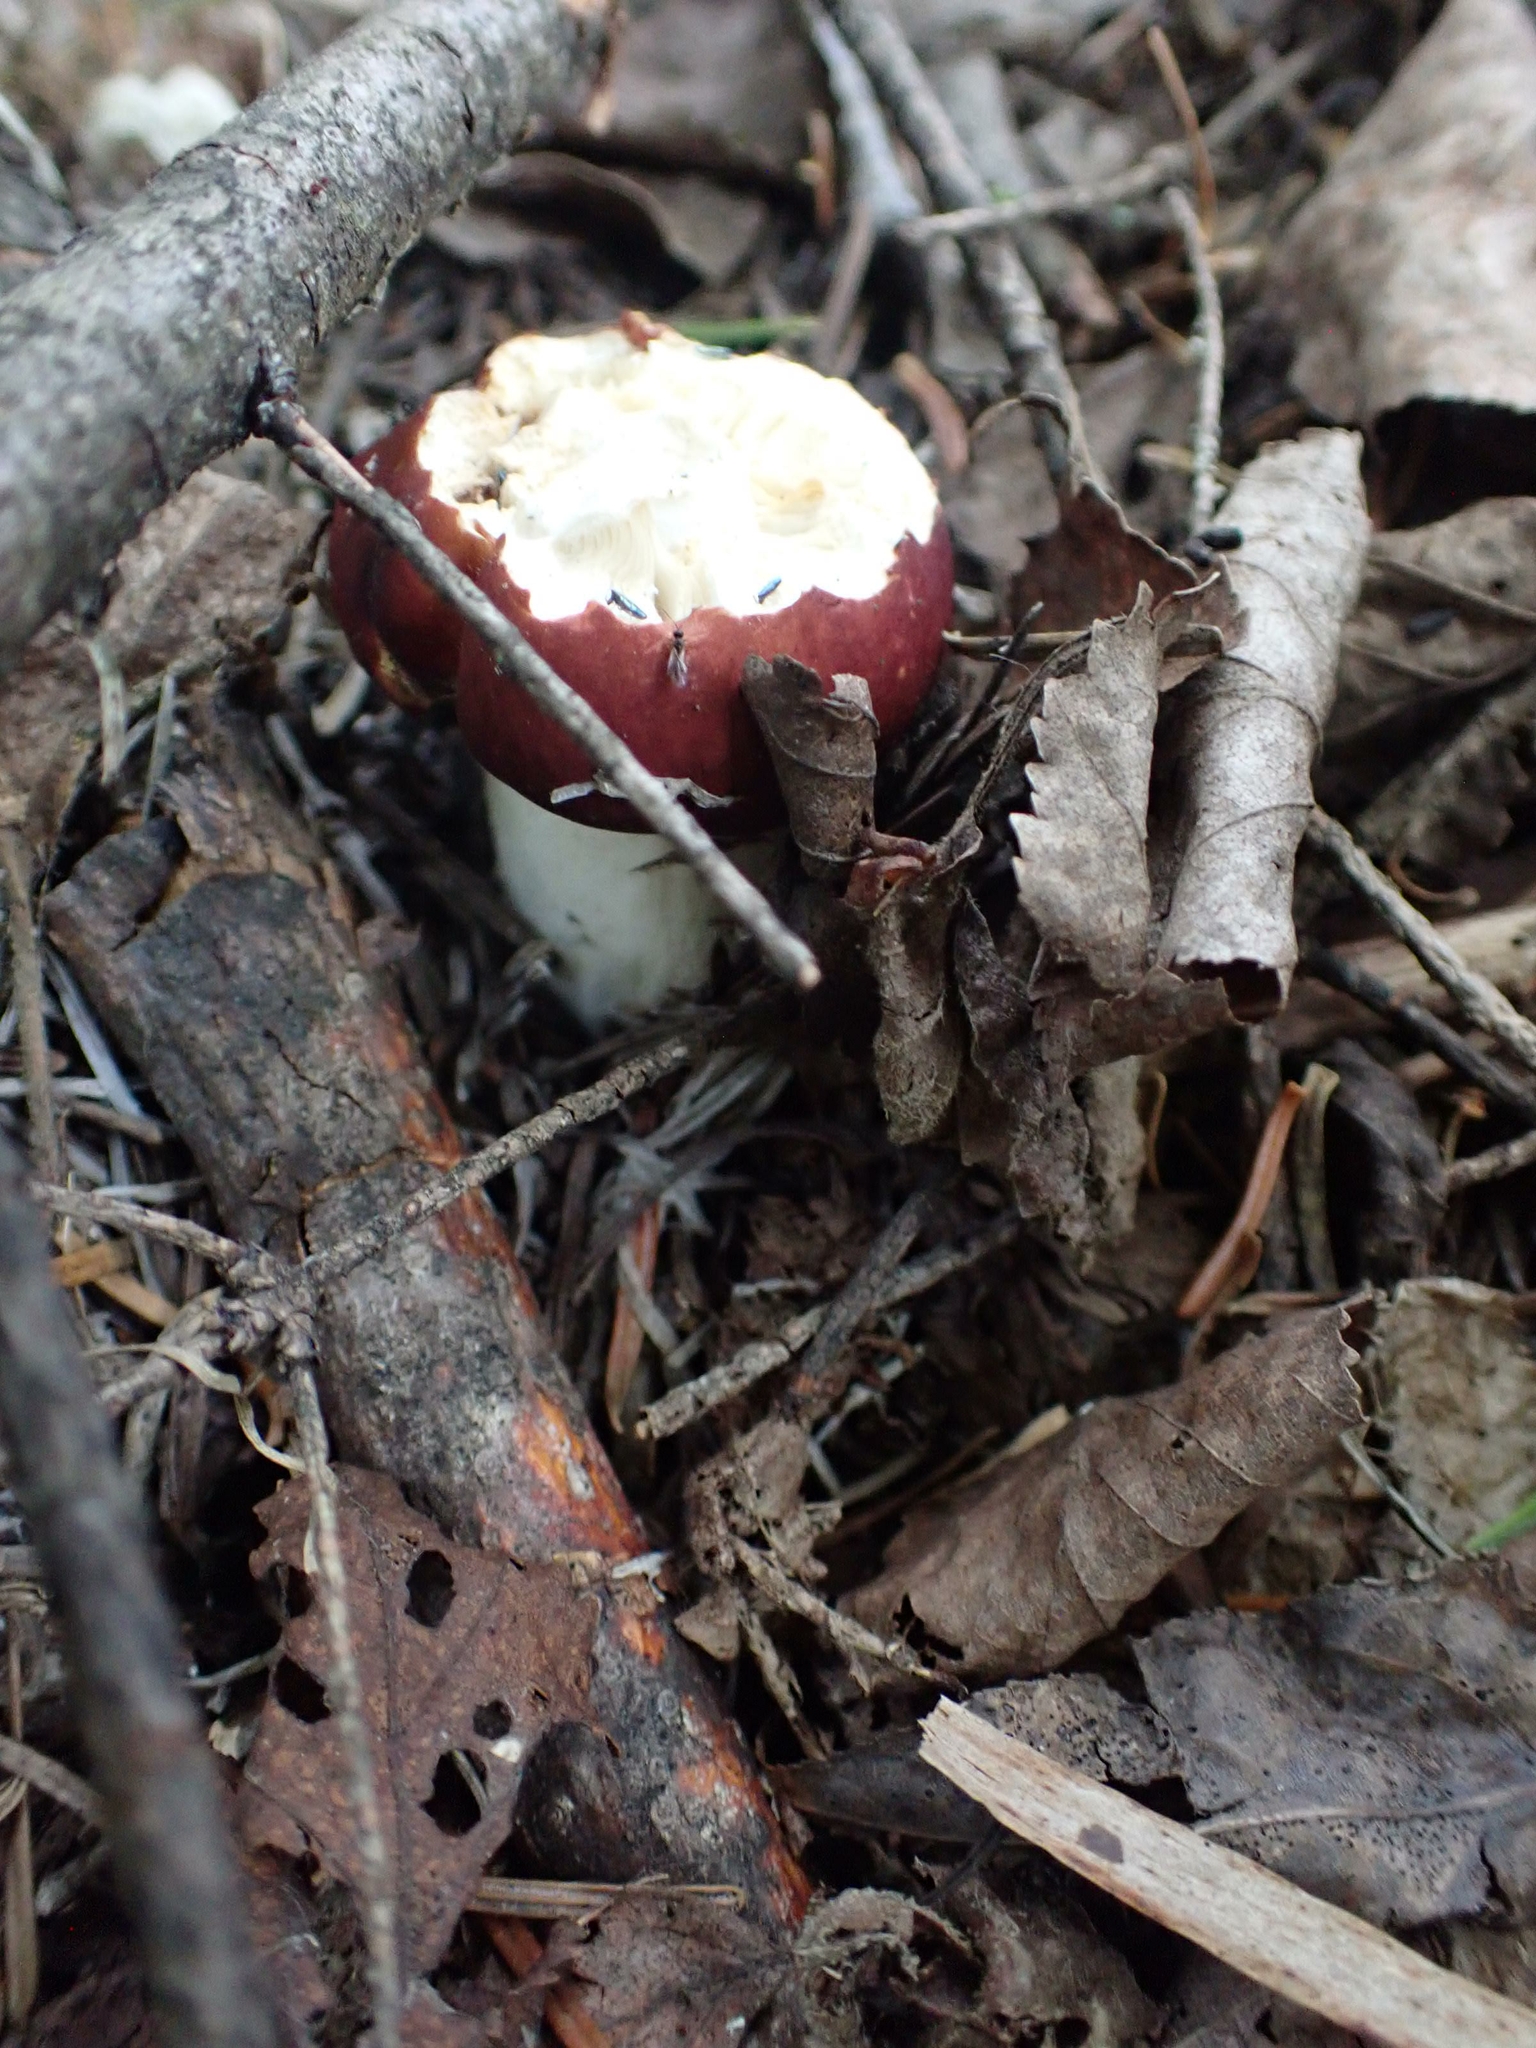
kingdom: Animalia
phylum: Chordata
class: Mammalia
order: Rodentia
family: Sciuridae
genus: Tamiasciurus
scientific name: Tamiasciurus hudsonicus
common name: Red squirrel
